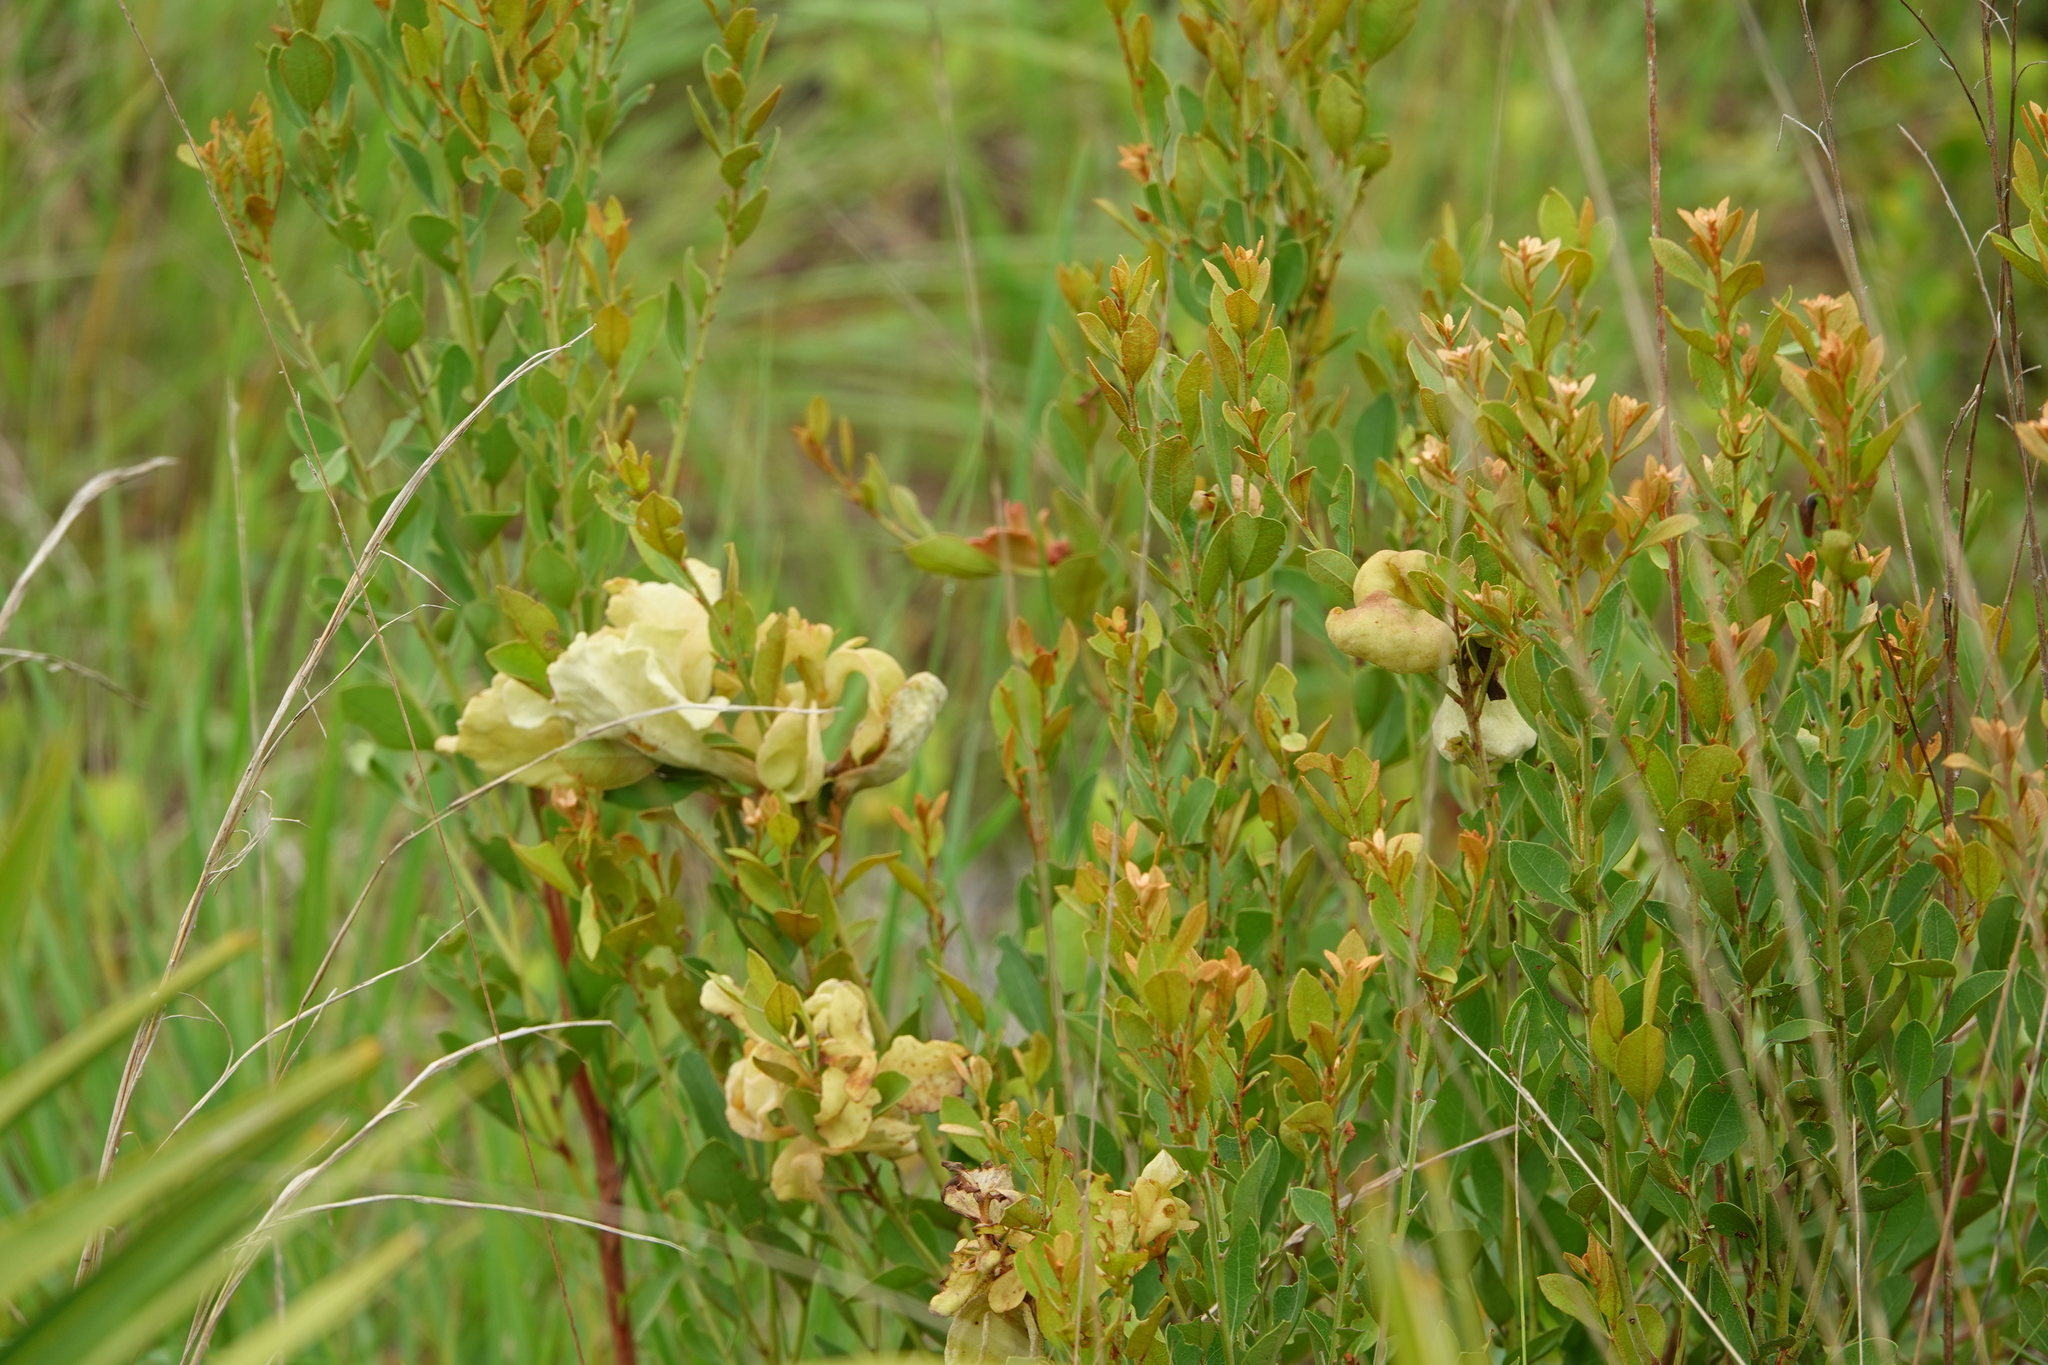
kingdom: Fungi
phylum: Basidiomycota
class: Exobasidiomycetes
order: Exobasidiales
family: Exobasidiaceae
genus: Exobasidium
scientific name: Exobasidium ferrugineae
